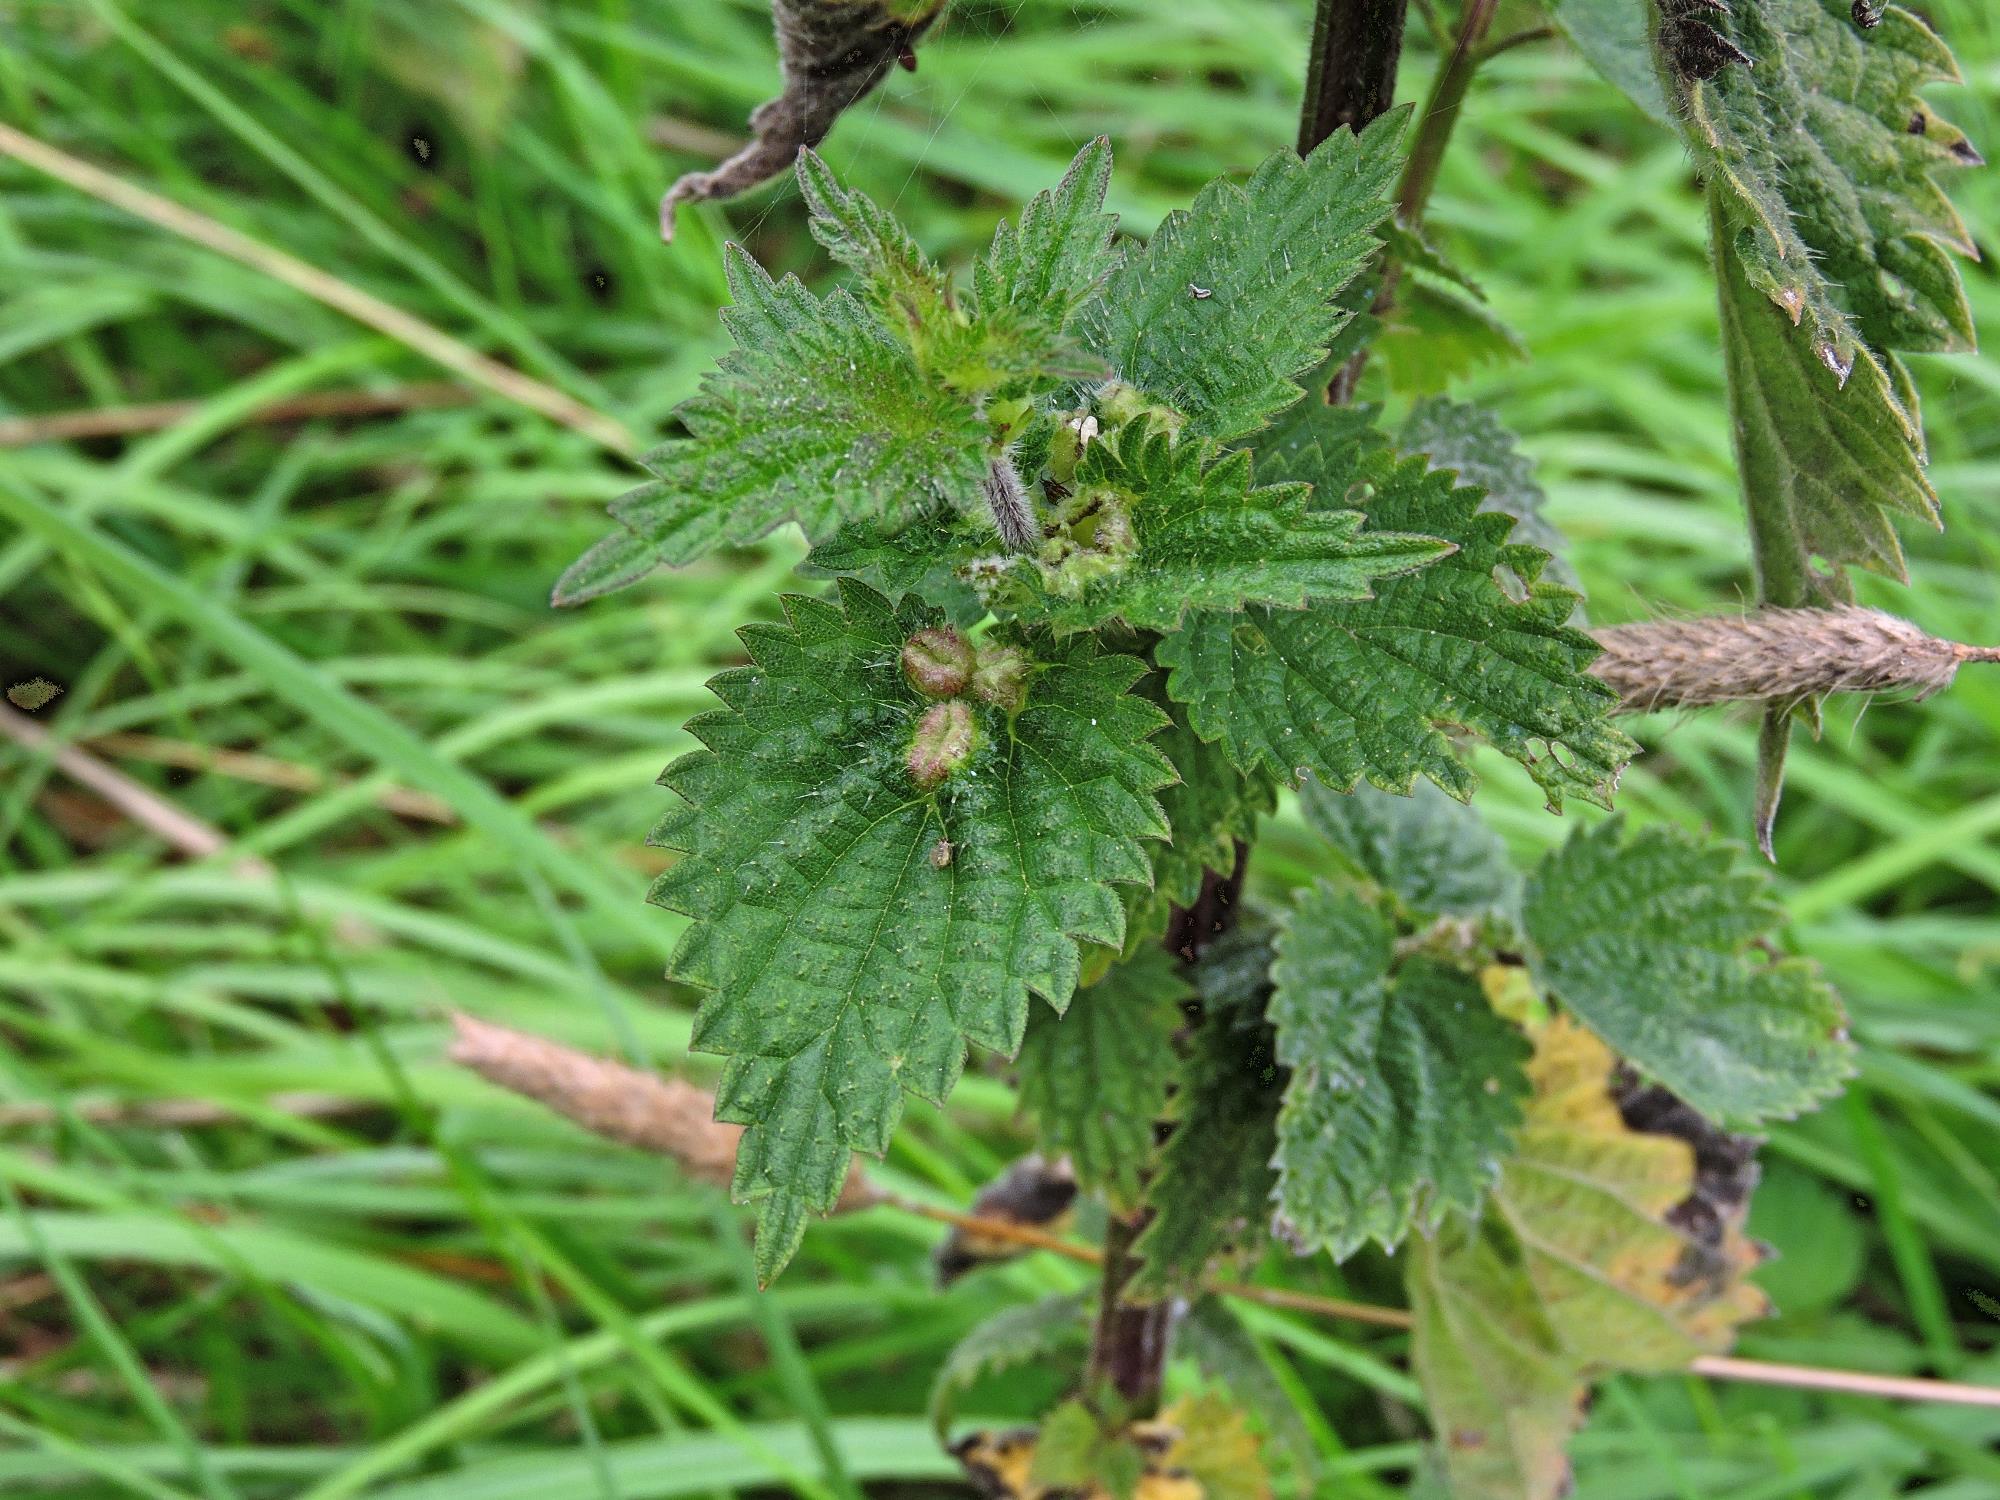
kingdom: Animalia
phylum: Arthropoda
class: Insecta
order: Diptera
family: Cecidomyiidae
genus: Dasineura
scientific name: Dasineura urticae
